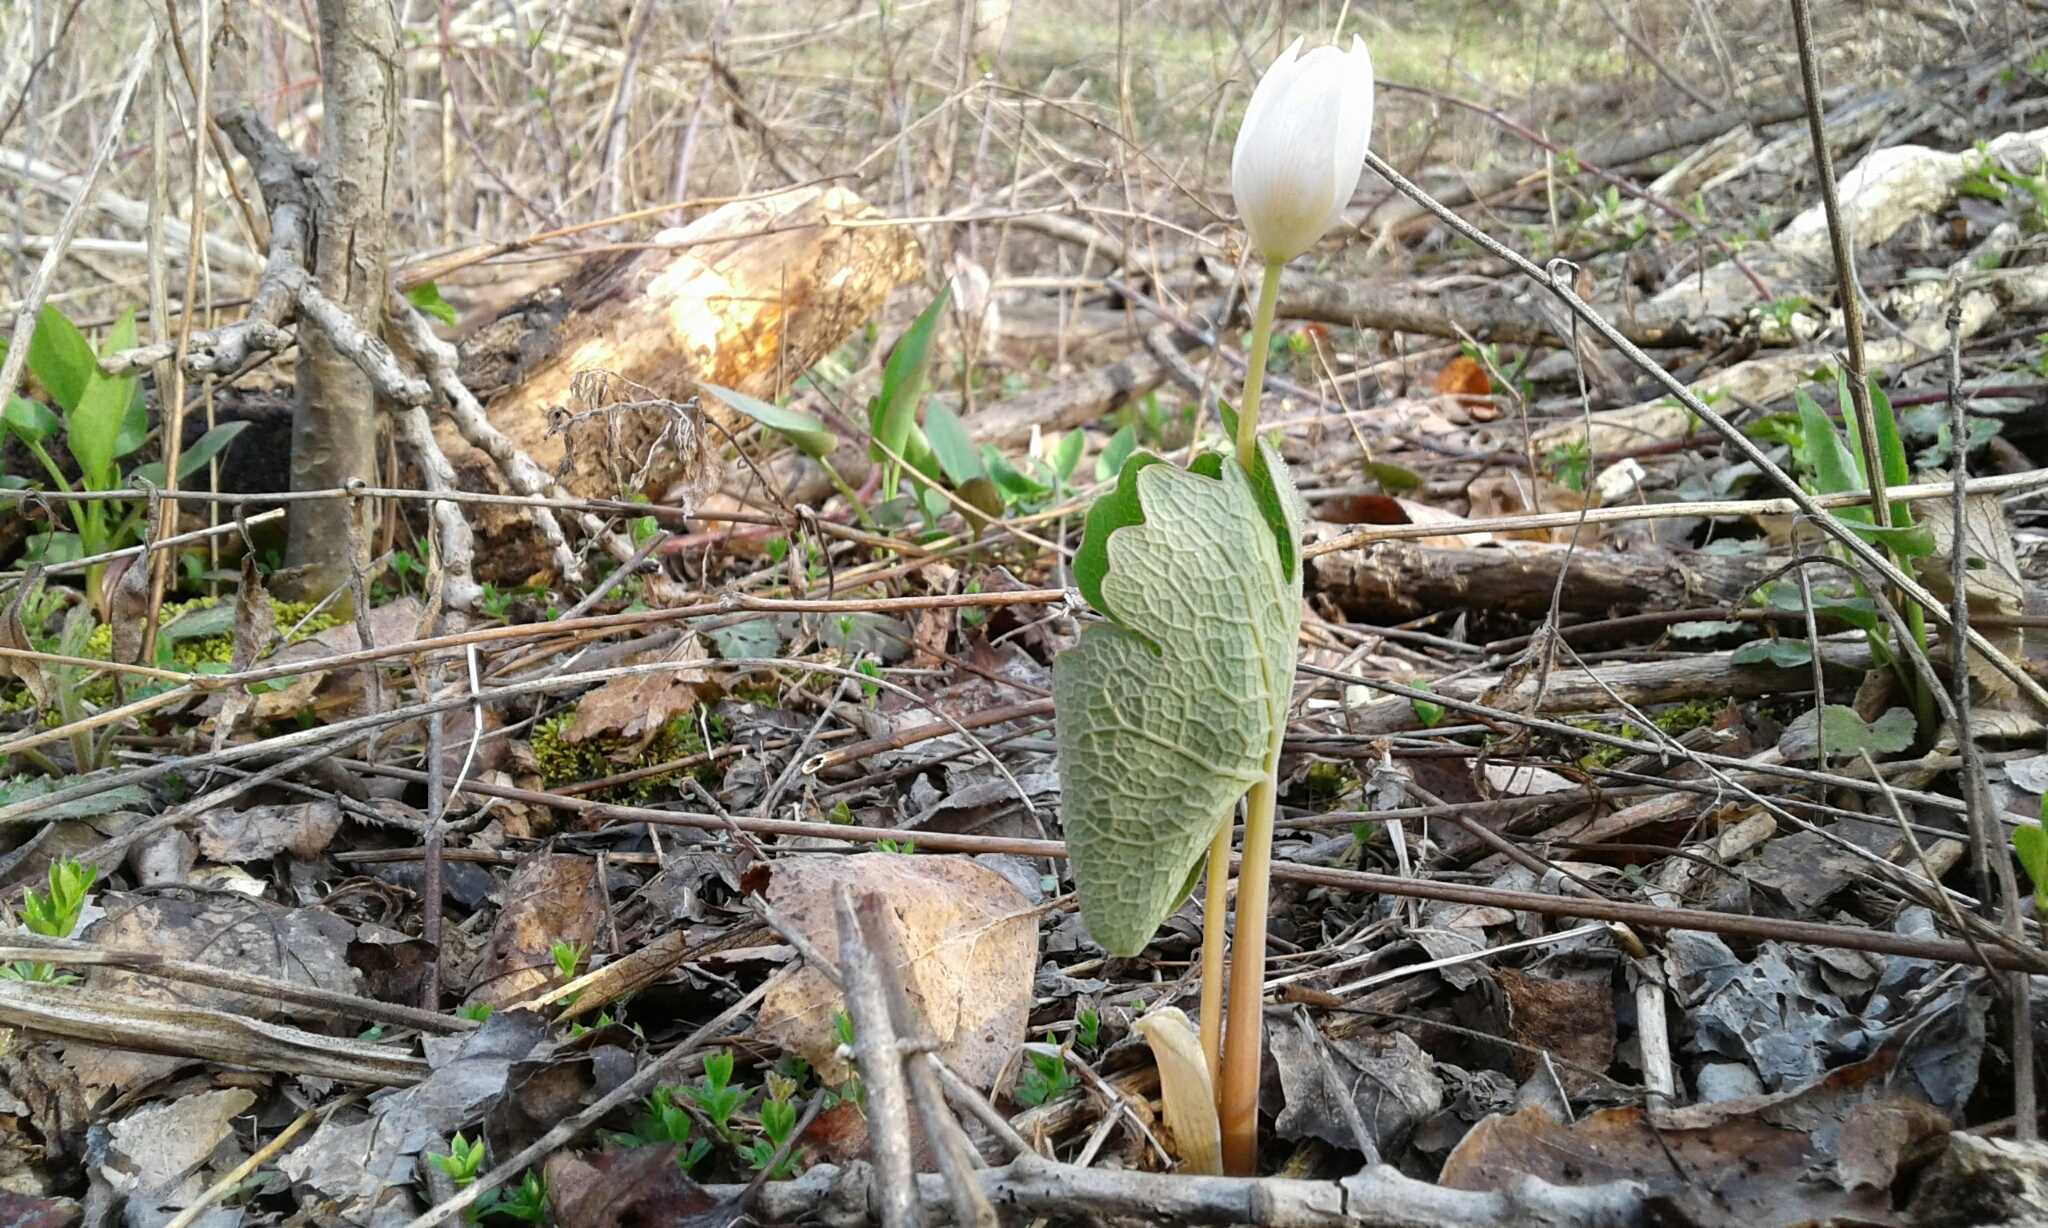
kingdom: Plantae
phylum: Tracheophyta
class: Magnoliopsida
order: Ranunculales
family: Papaveraceae
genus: Sanguinaria
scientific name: Sanguinaria canadensis
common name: Bloodroot
